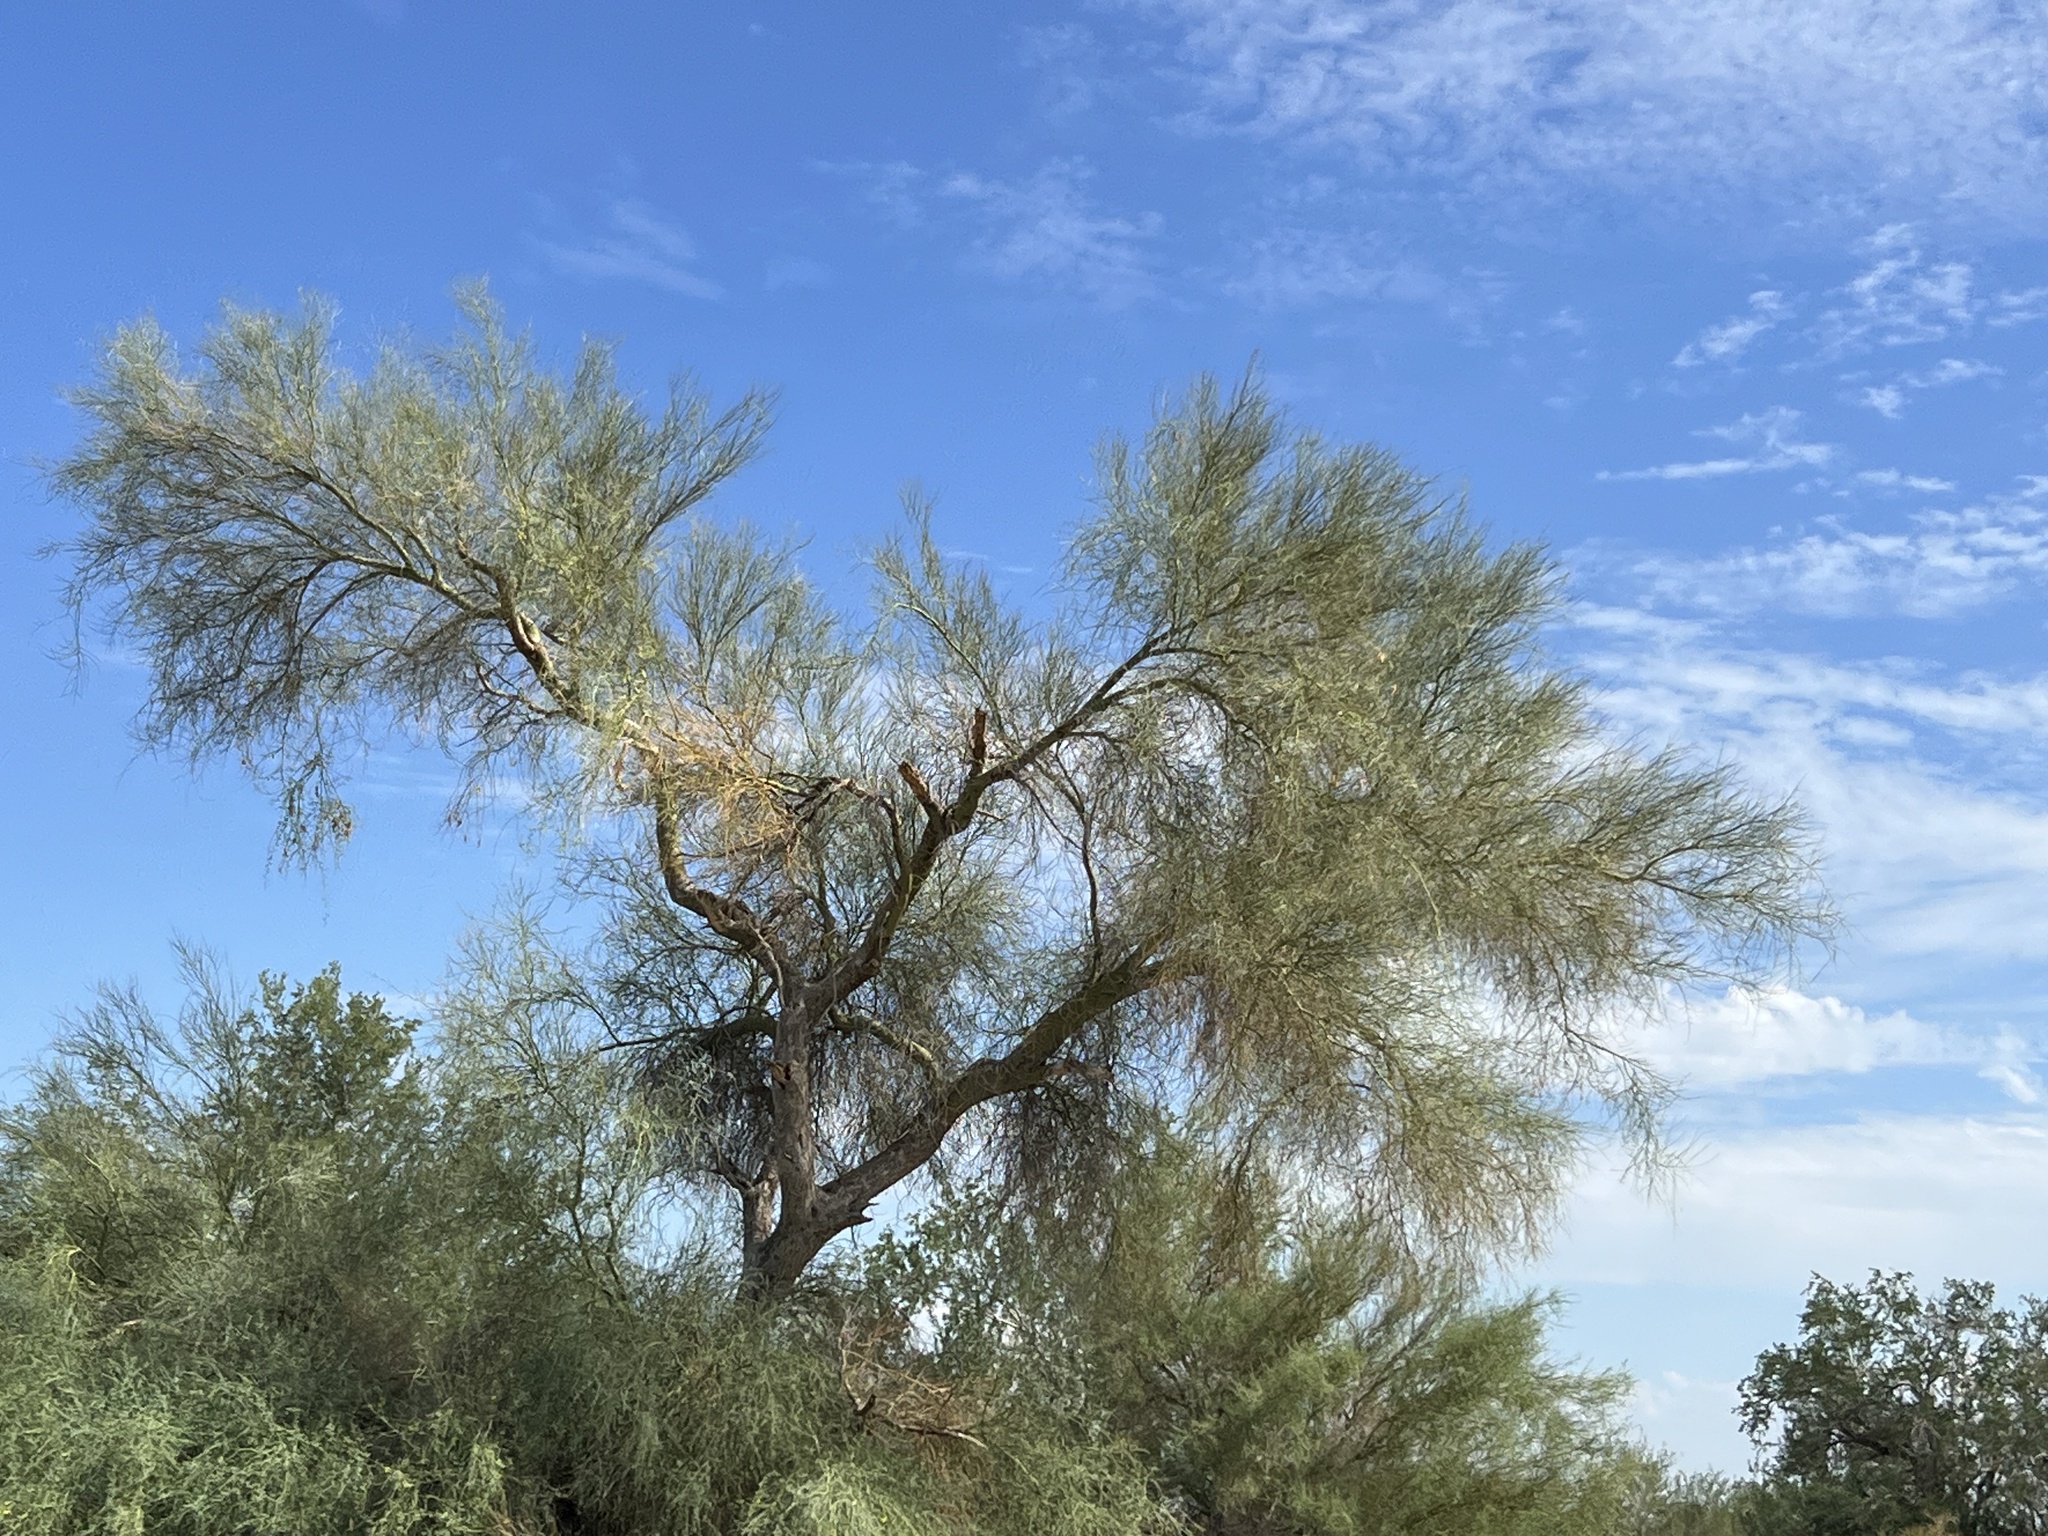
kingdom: Plantae
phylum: Tracheophyta
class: Magnoliopsida
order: Fabales
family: Fabaceae
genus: Parkinsonia
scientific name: Parkinsonia florida
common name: Blue paloverde
